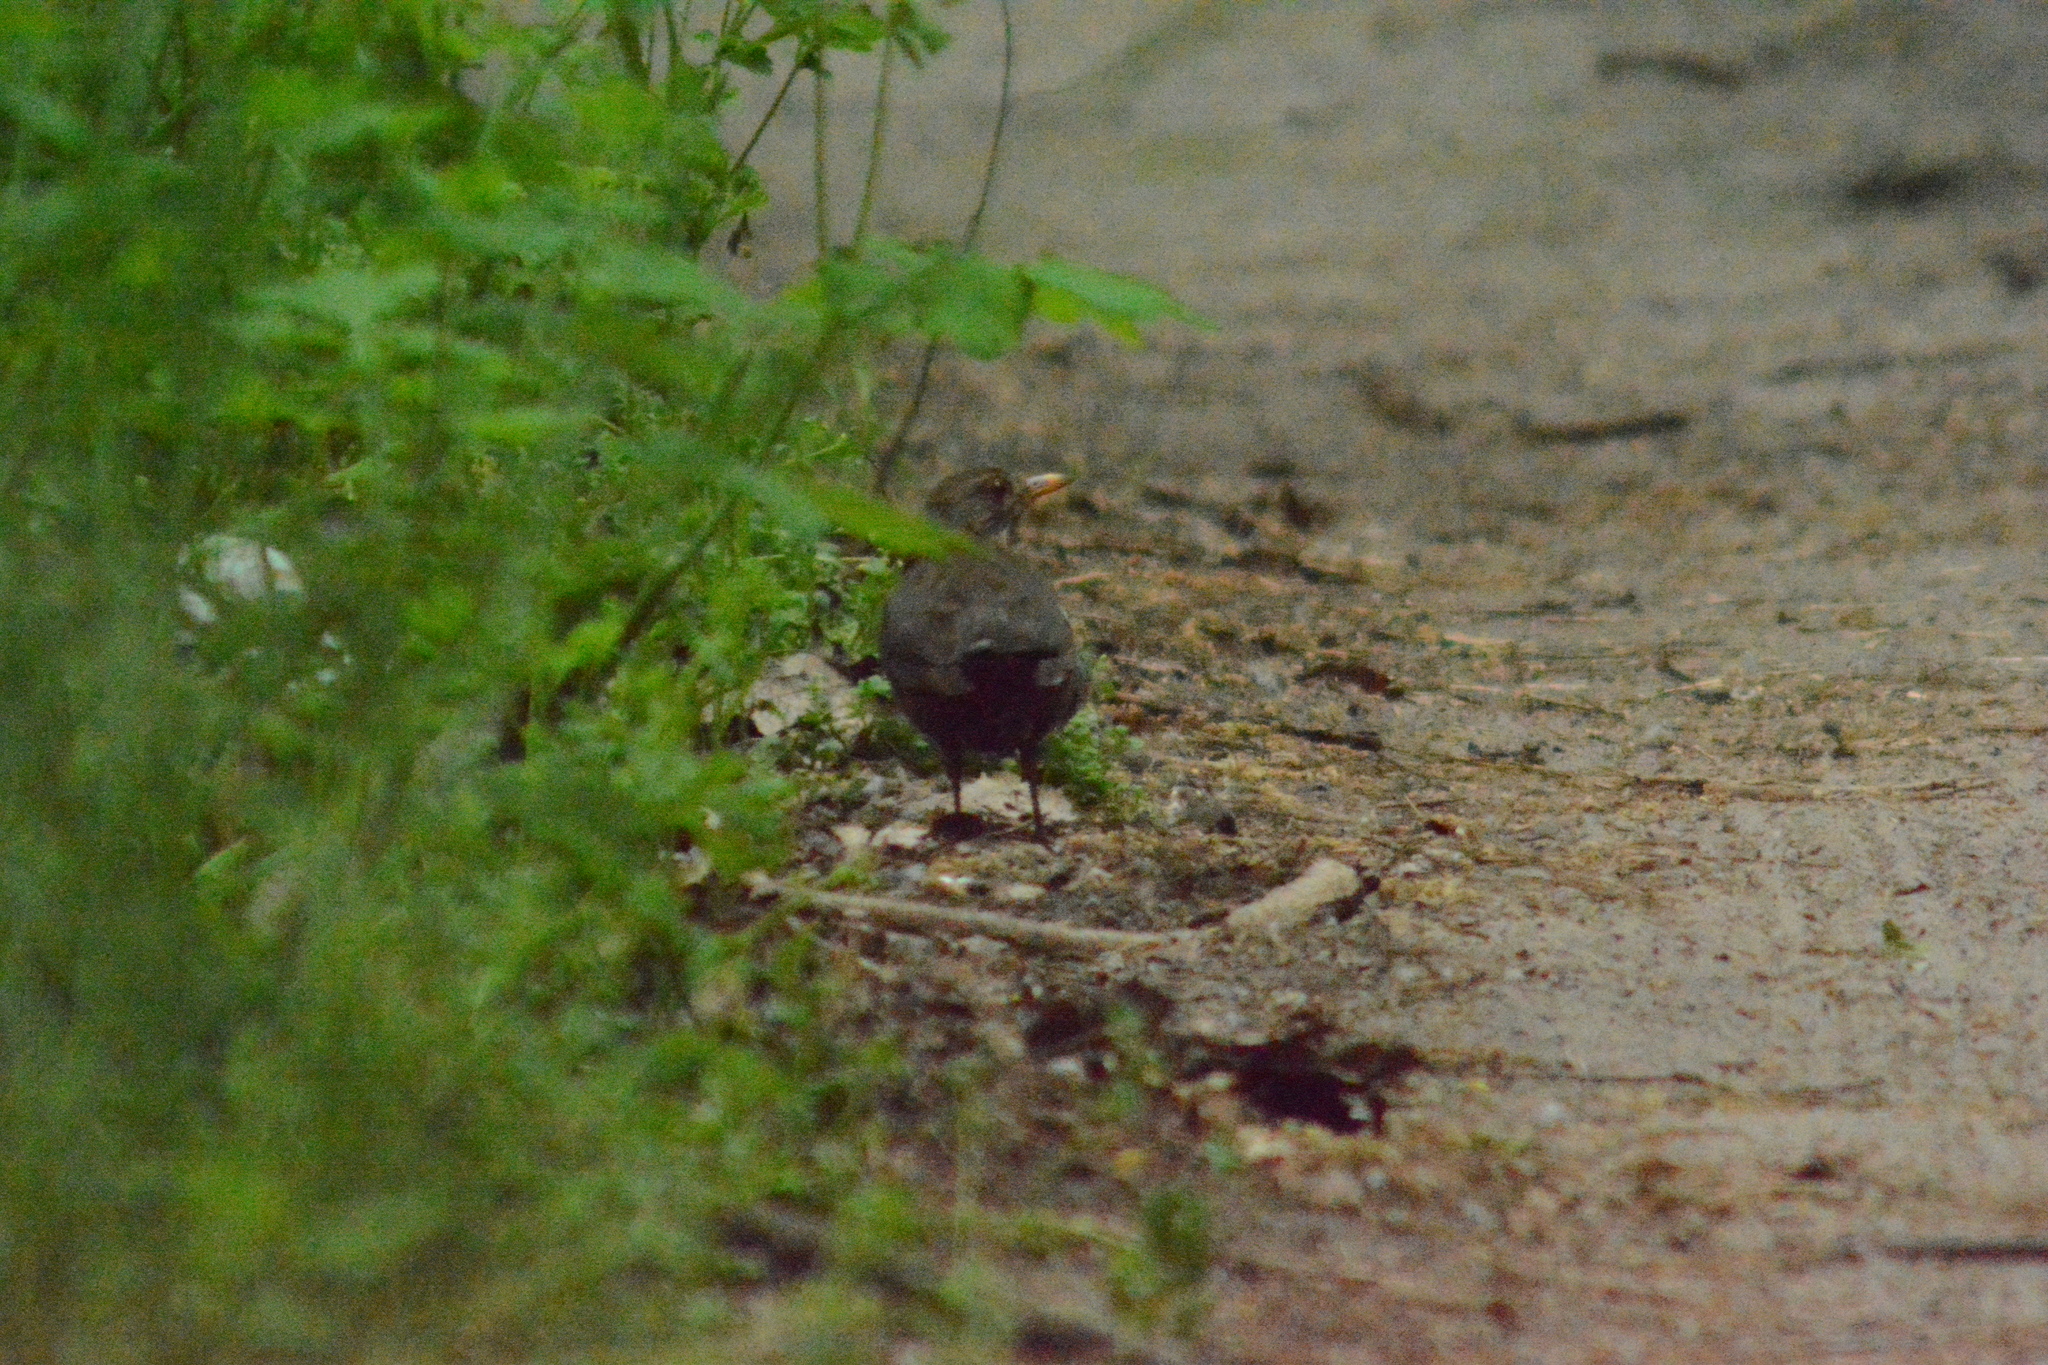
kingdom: Animalia
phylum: Chordata
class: Aves
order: Passeriformes
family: Turdidae
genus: Turdus
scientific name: Turdus merula
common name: Common blackbird
